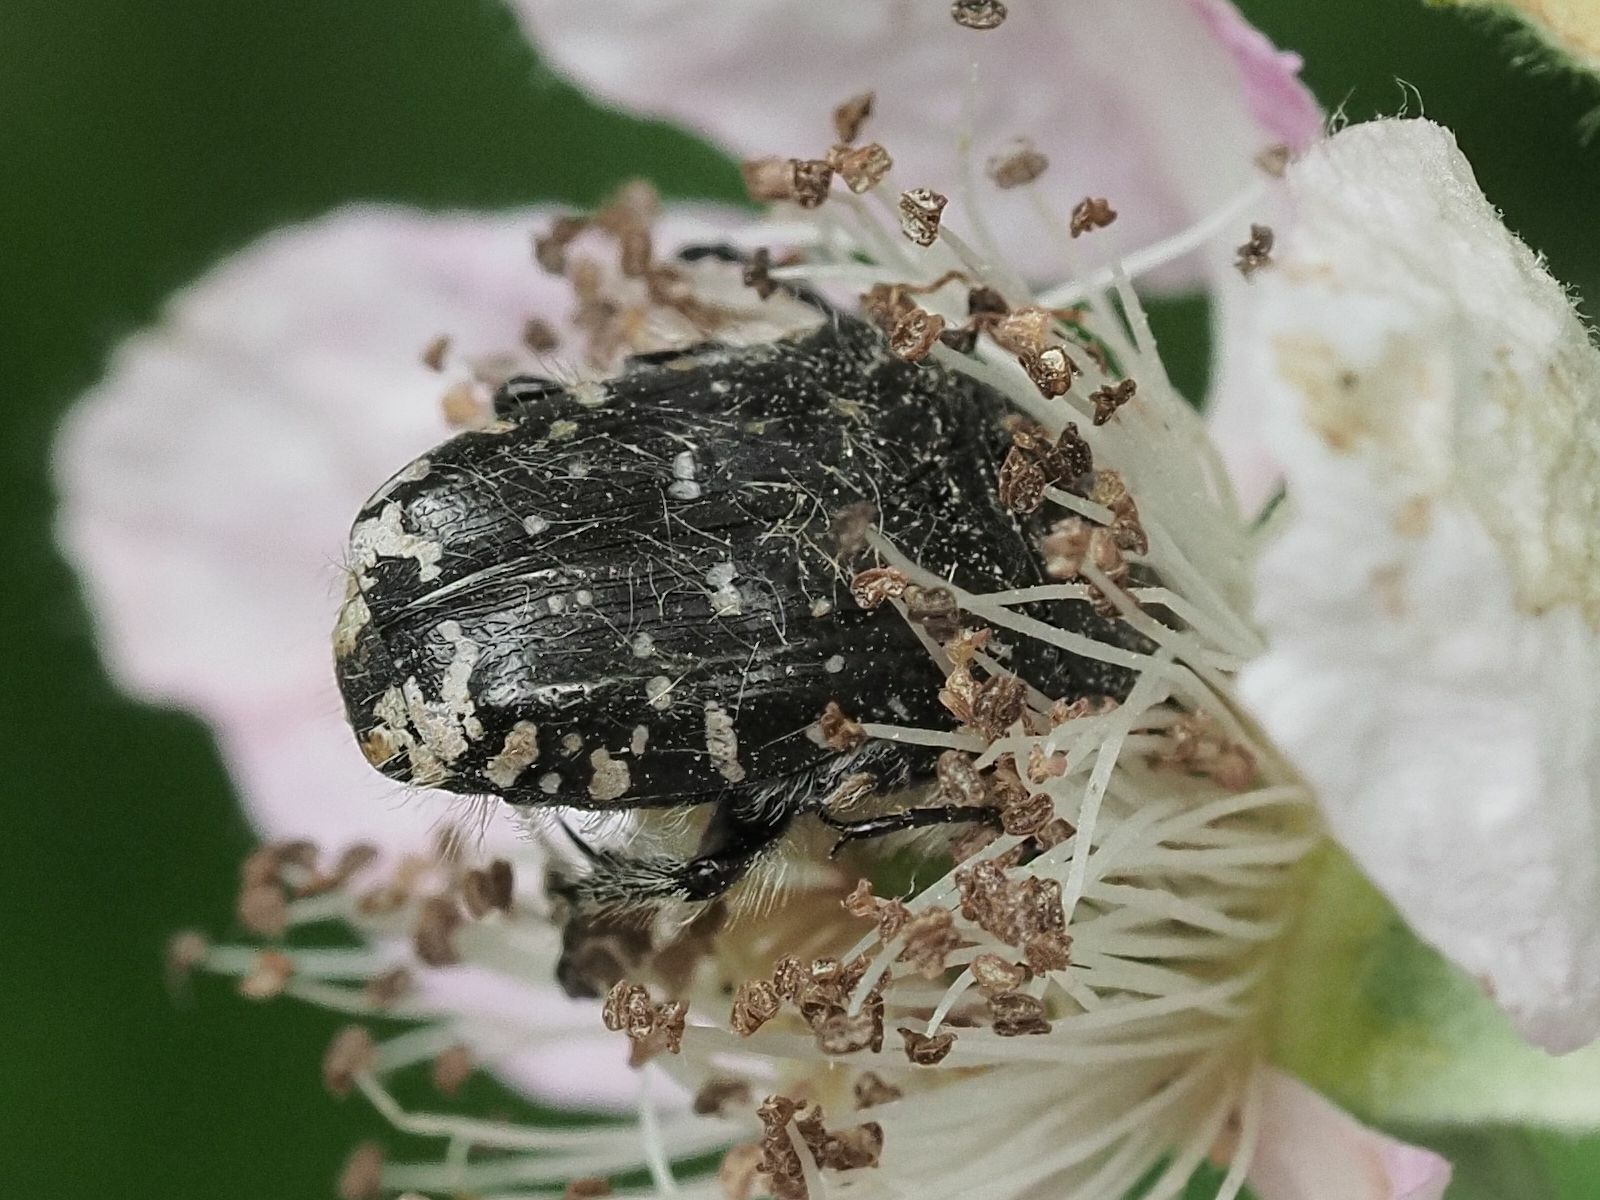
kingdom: Animalia
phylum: Arthropoda
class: Insecta
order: Coleoptera
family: Scarabaeidae
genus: Oxythyrea
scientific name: Oxythyrea funesta
